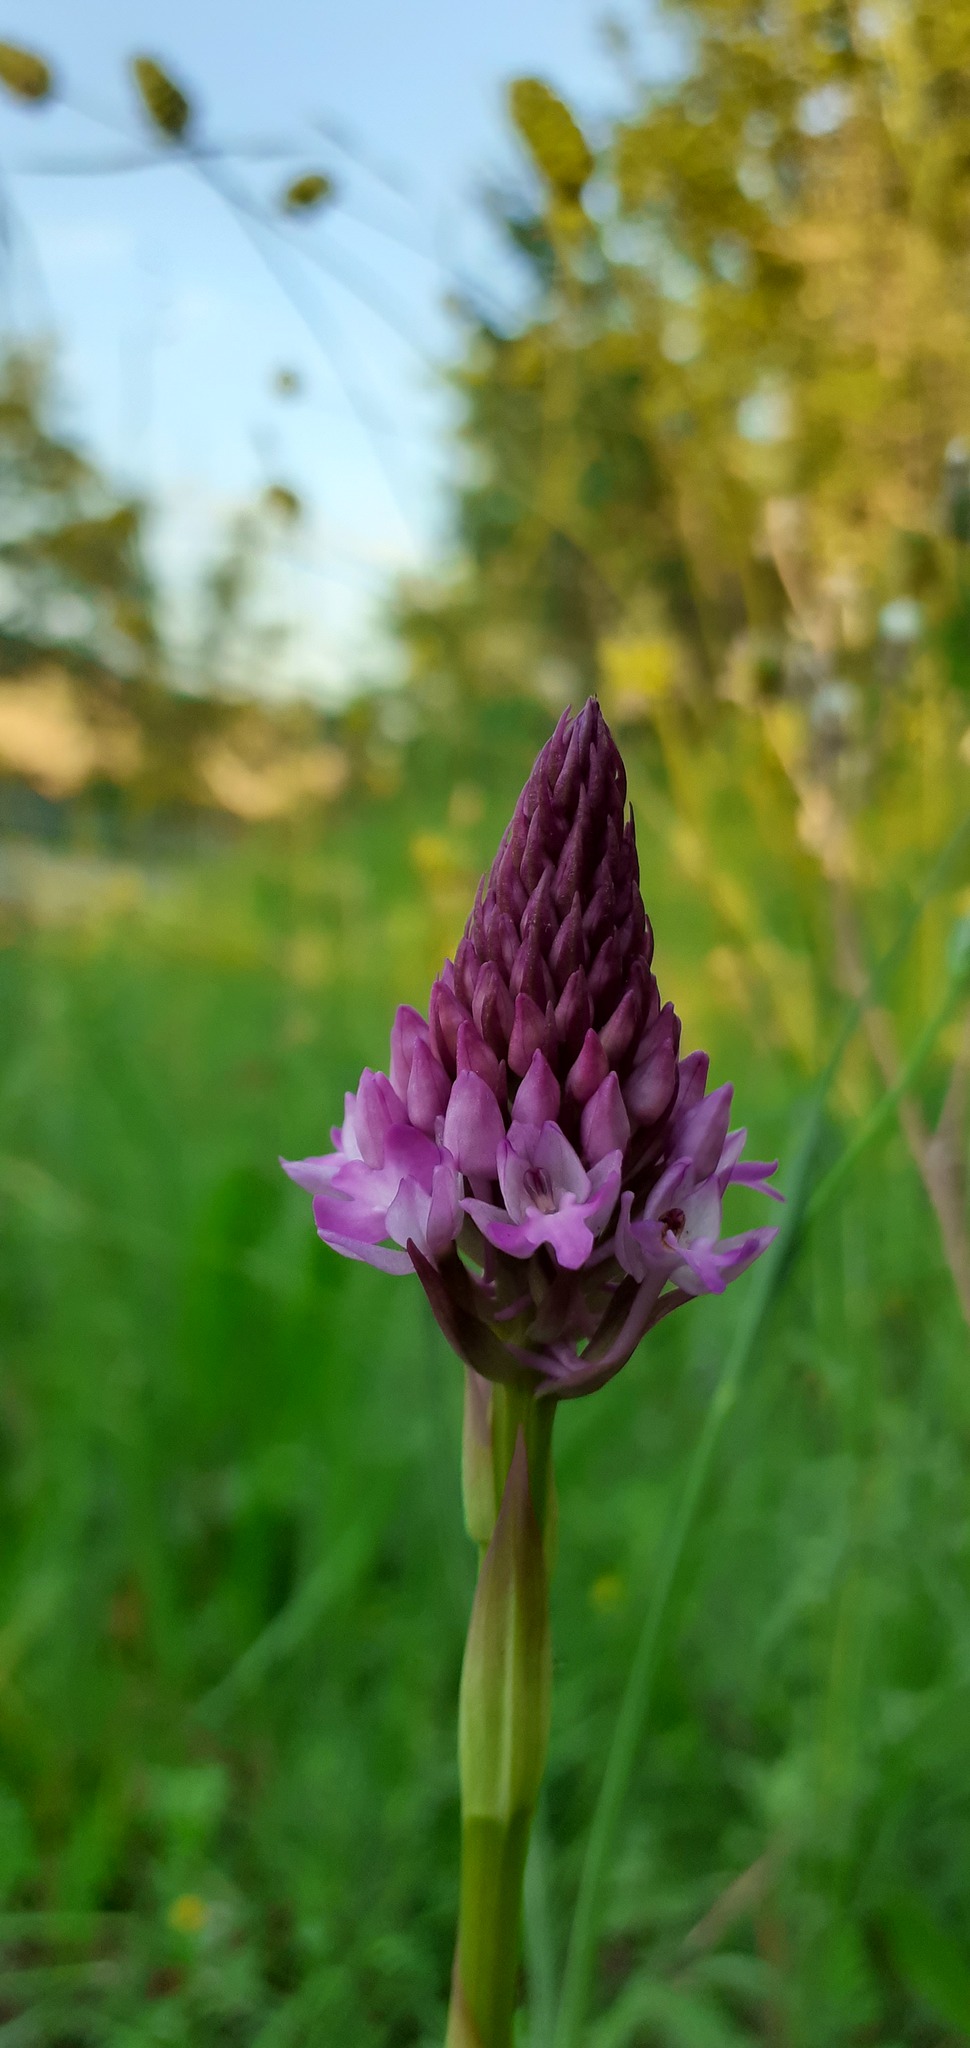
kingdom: Plantae
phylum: Tracheophyta
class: Liliopsida
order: Asparagales
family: Orchidaceae
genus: Anacamptis
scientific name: Anacamptis pyramidalis
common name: Pyramidal orchid
